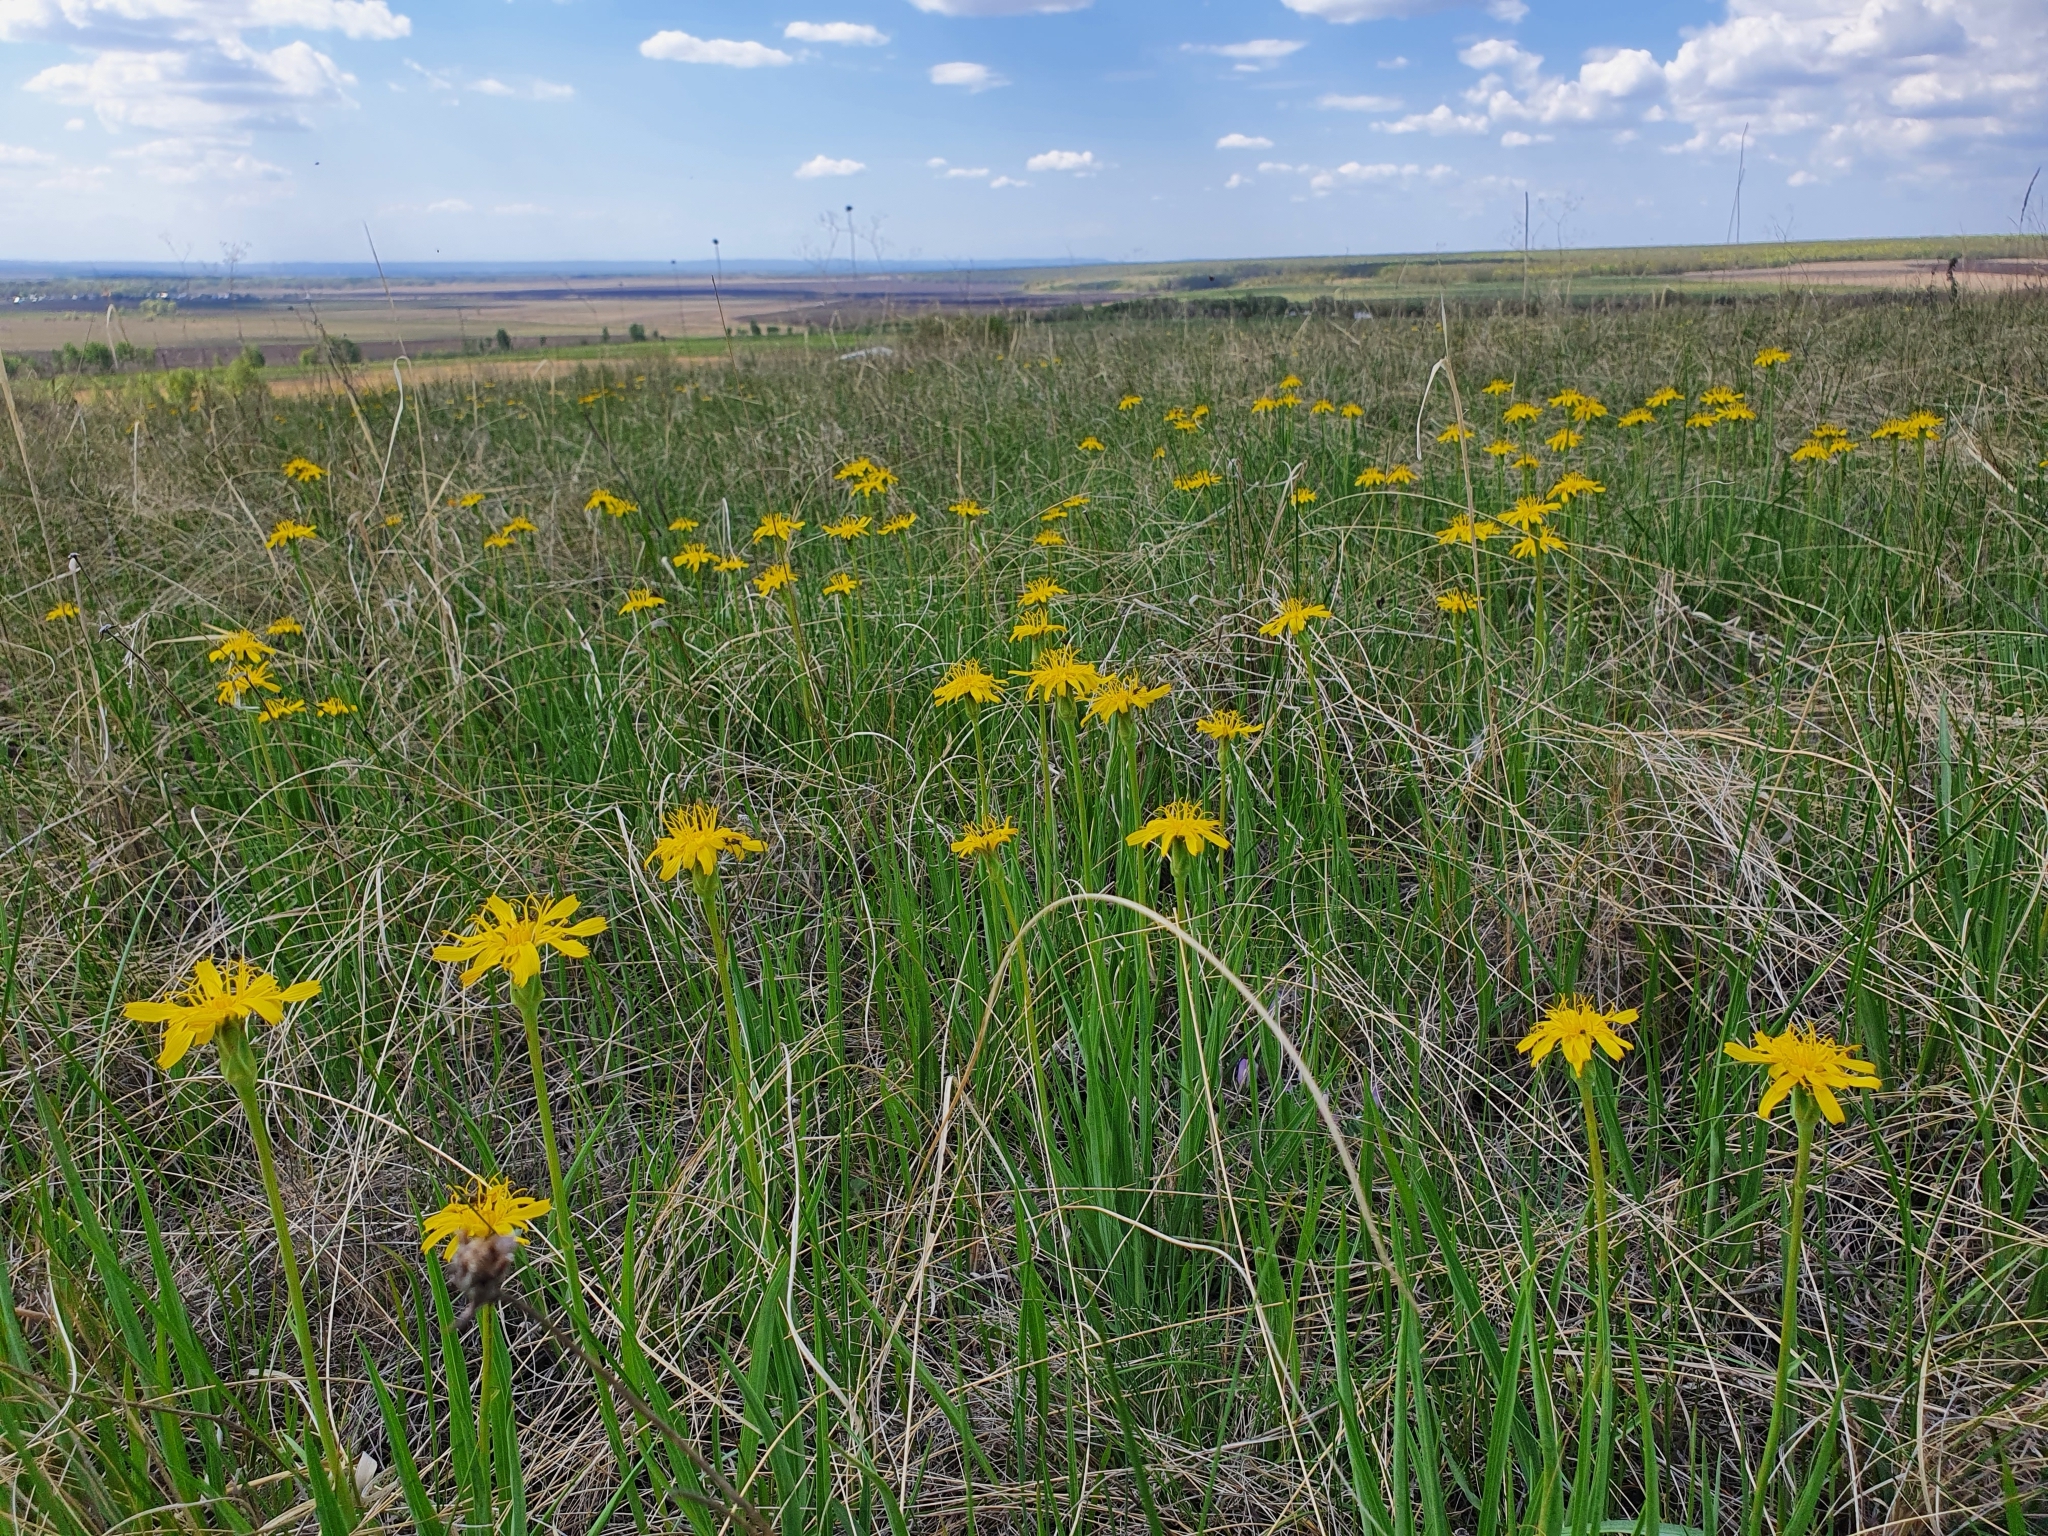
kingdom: Plantae
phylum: Tracheophyta
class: Magnoliopsida
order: Asterales
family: Asteraceae
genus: Takhtajaniantha
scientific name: Takhtajaniantha austriaca
